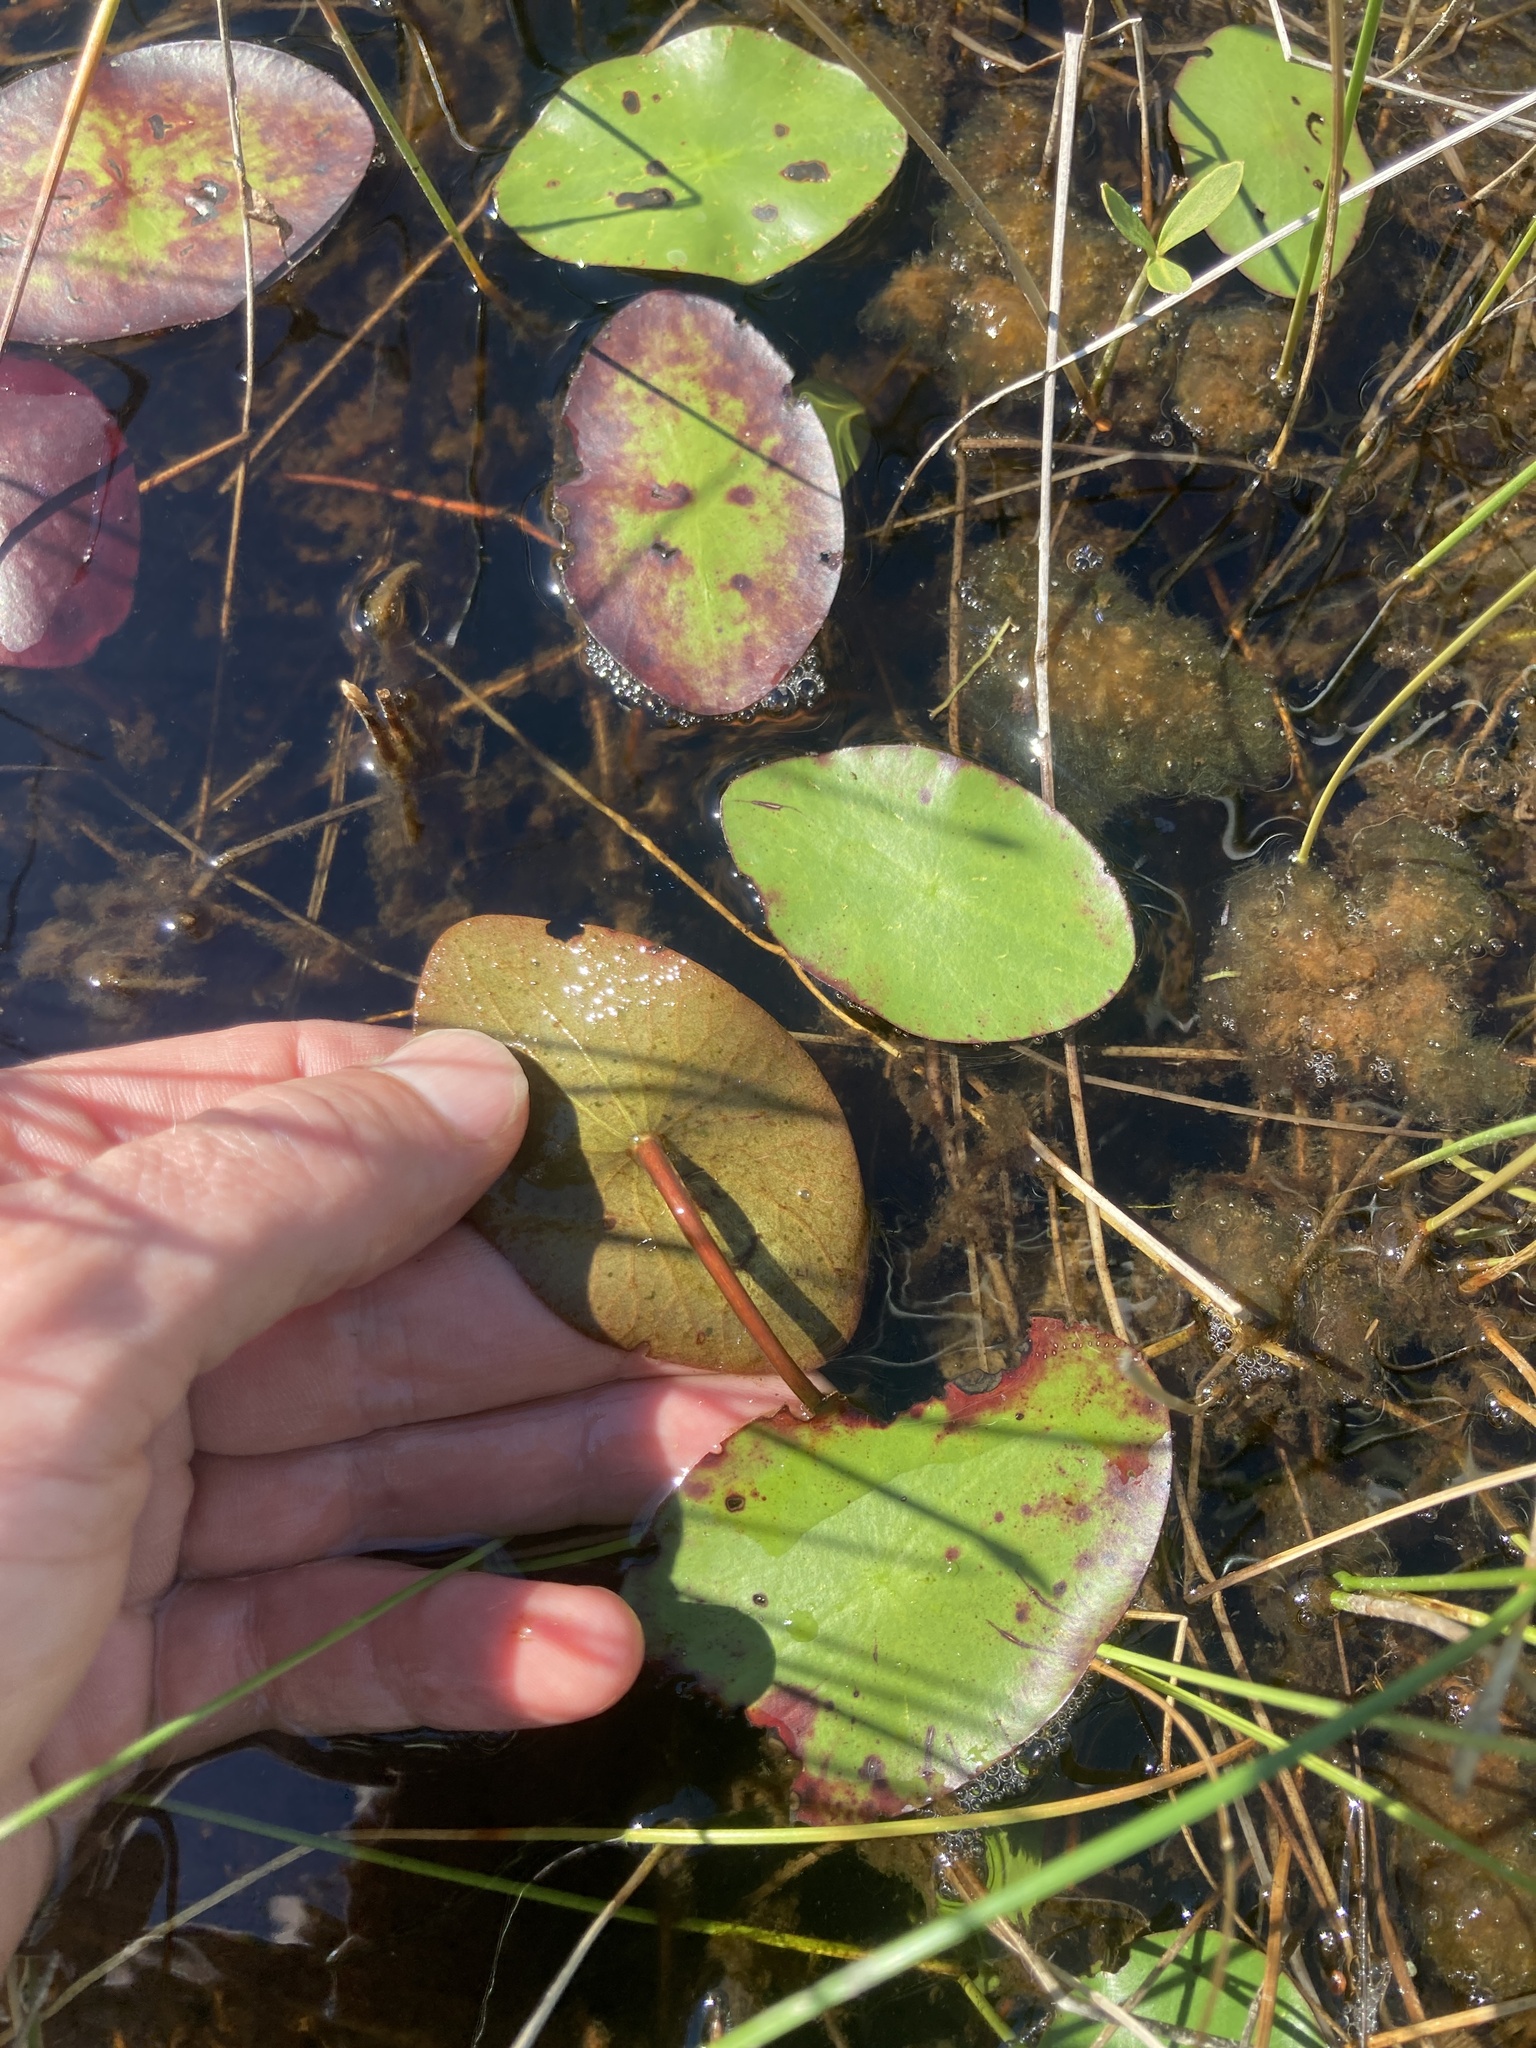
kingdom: Plantae
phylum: Tracheophyta
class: Magnoliopsida
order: Nymphaeales
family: Cabombaceae
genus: Brasenia
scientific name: Brasenia schreberi
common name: Water-shield
